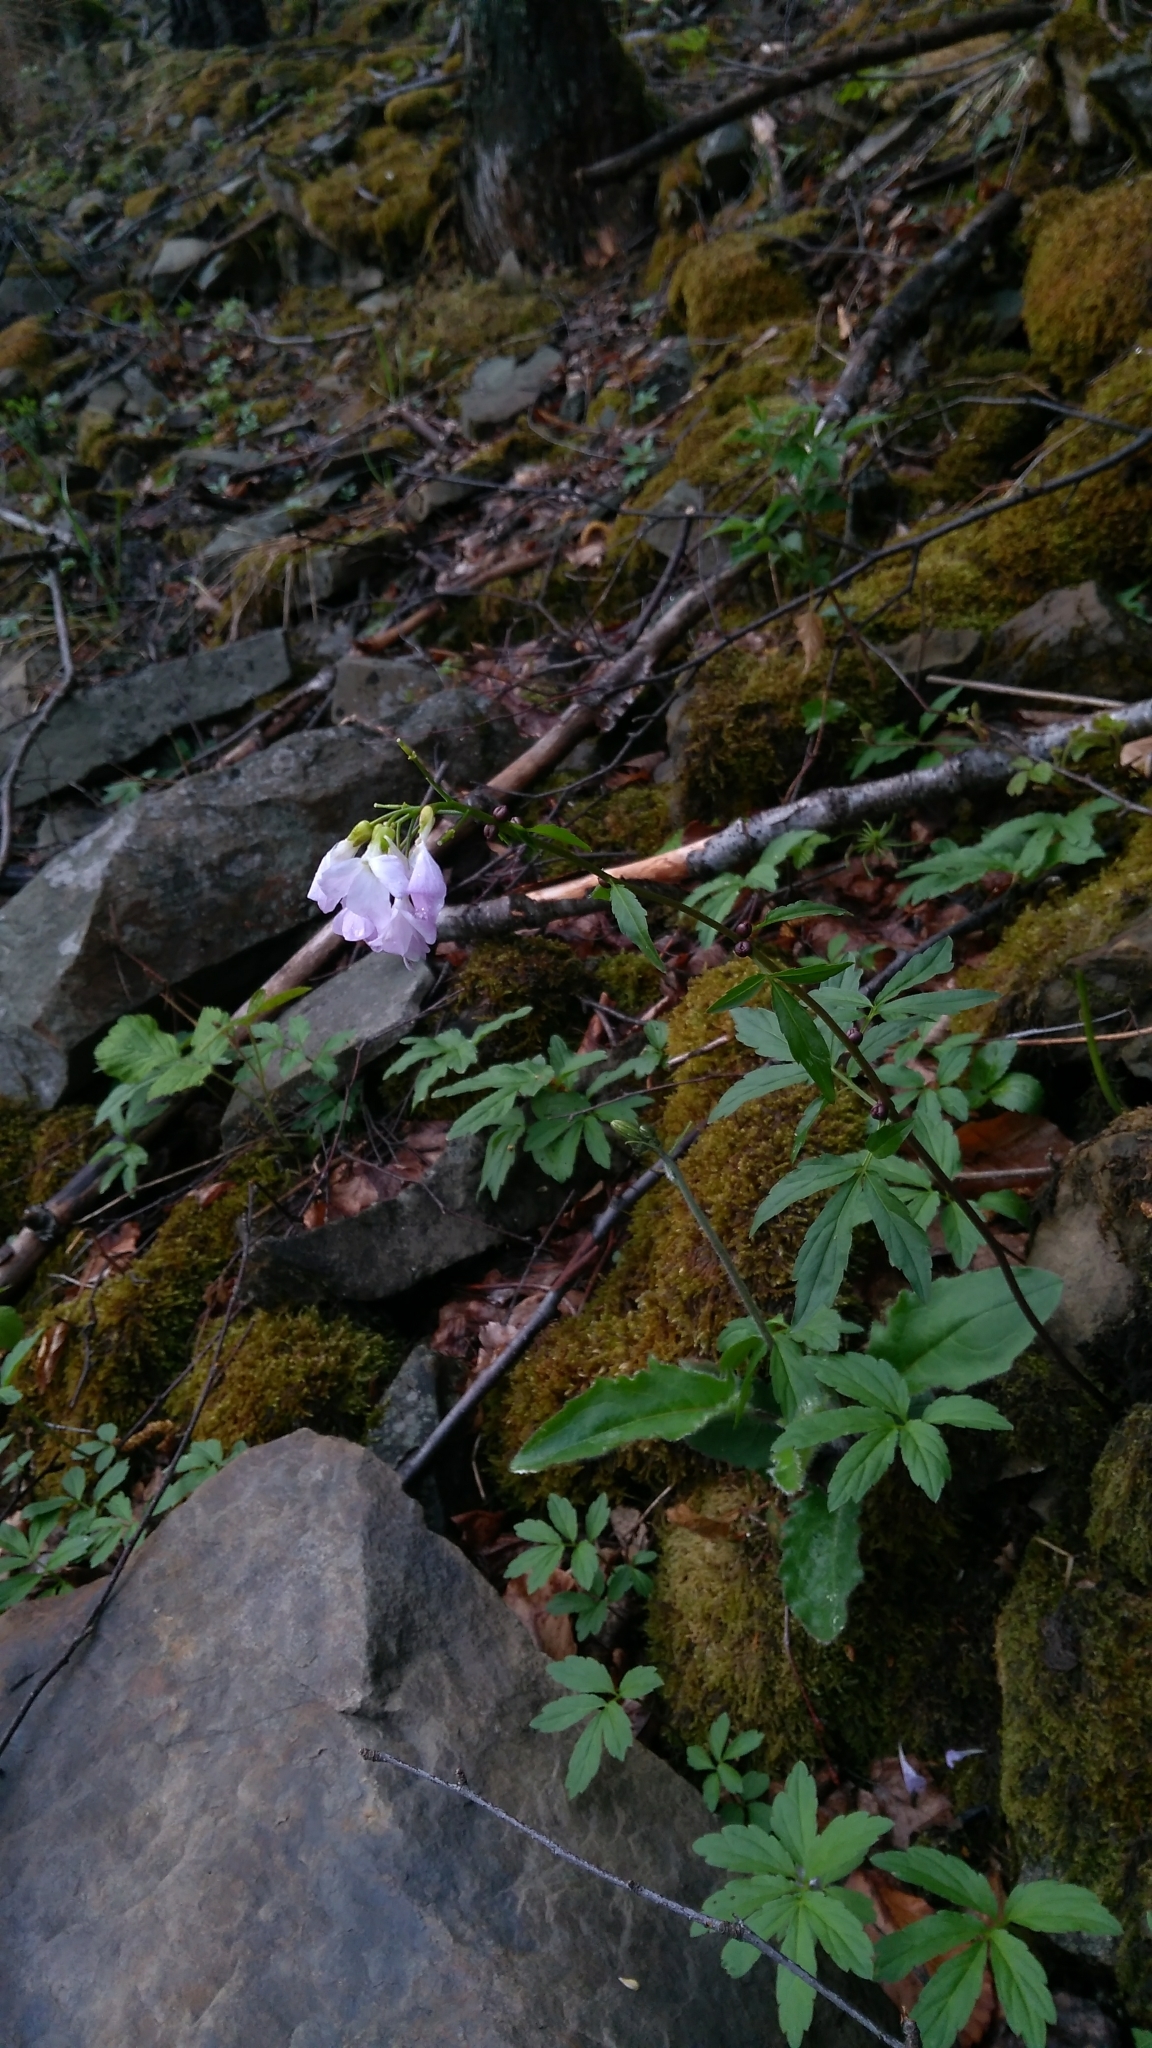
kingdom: Plantae
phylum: Tracheophyta
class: Magnoliopsida
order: Brassicales
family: Brassicaceae
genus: Cardamine
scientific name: Cardamine bulbifera
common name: Coralroot bittercress
